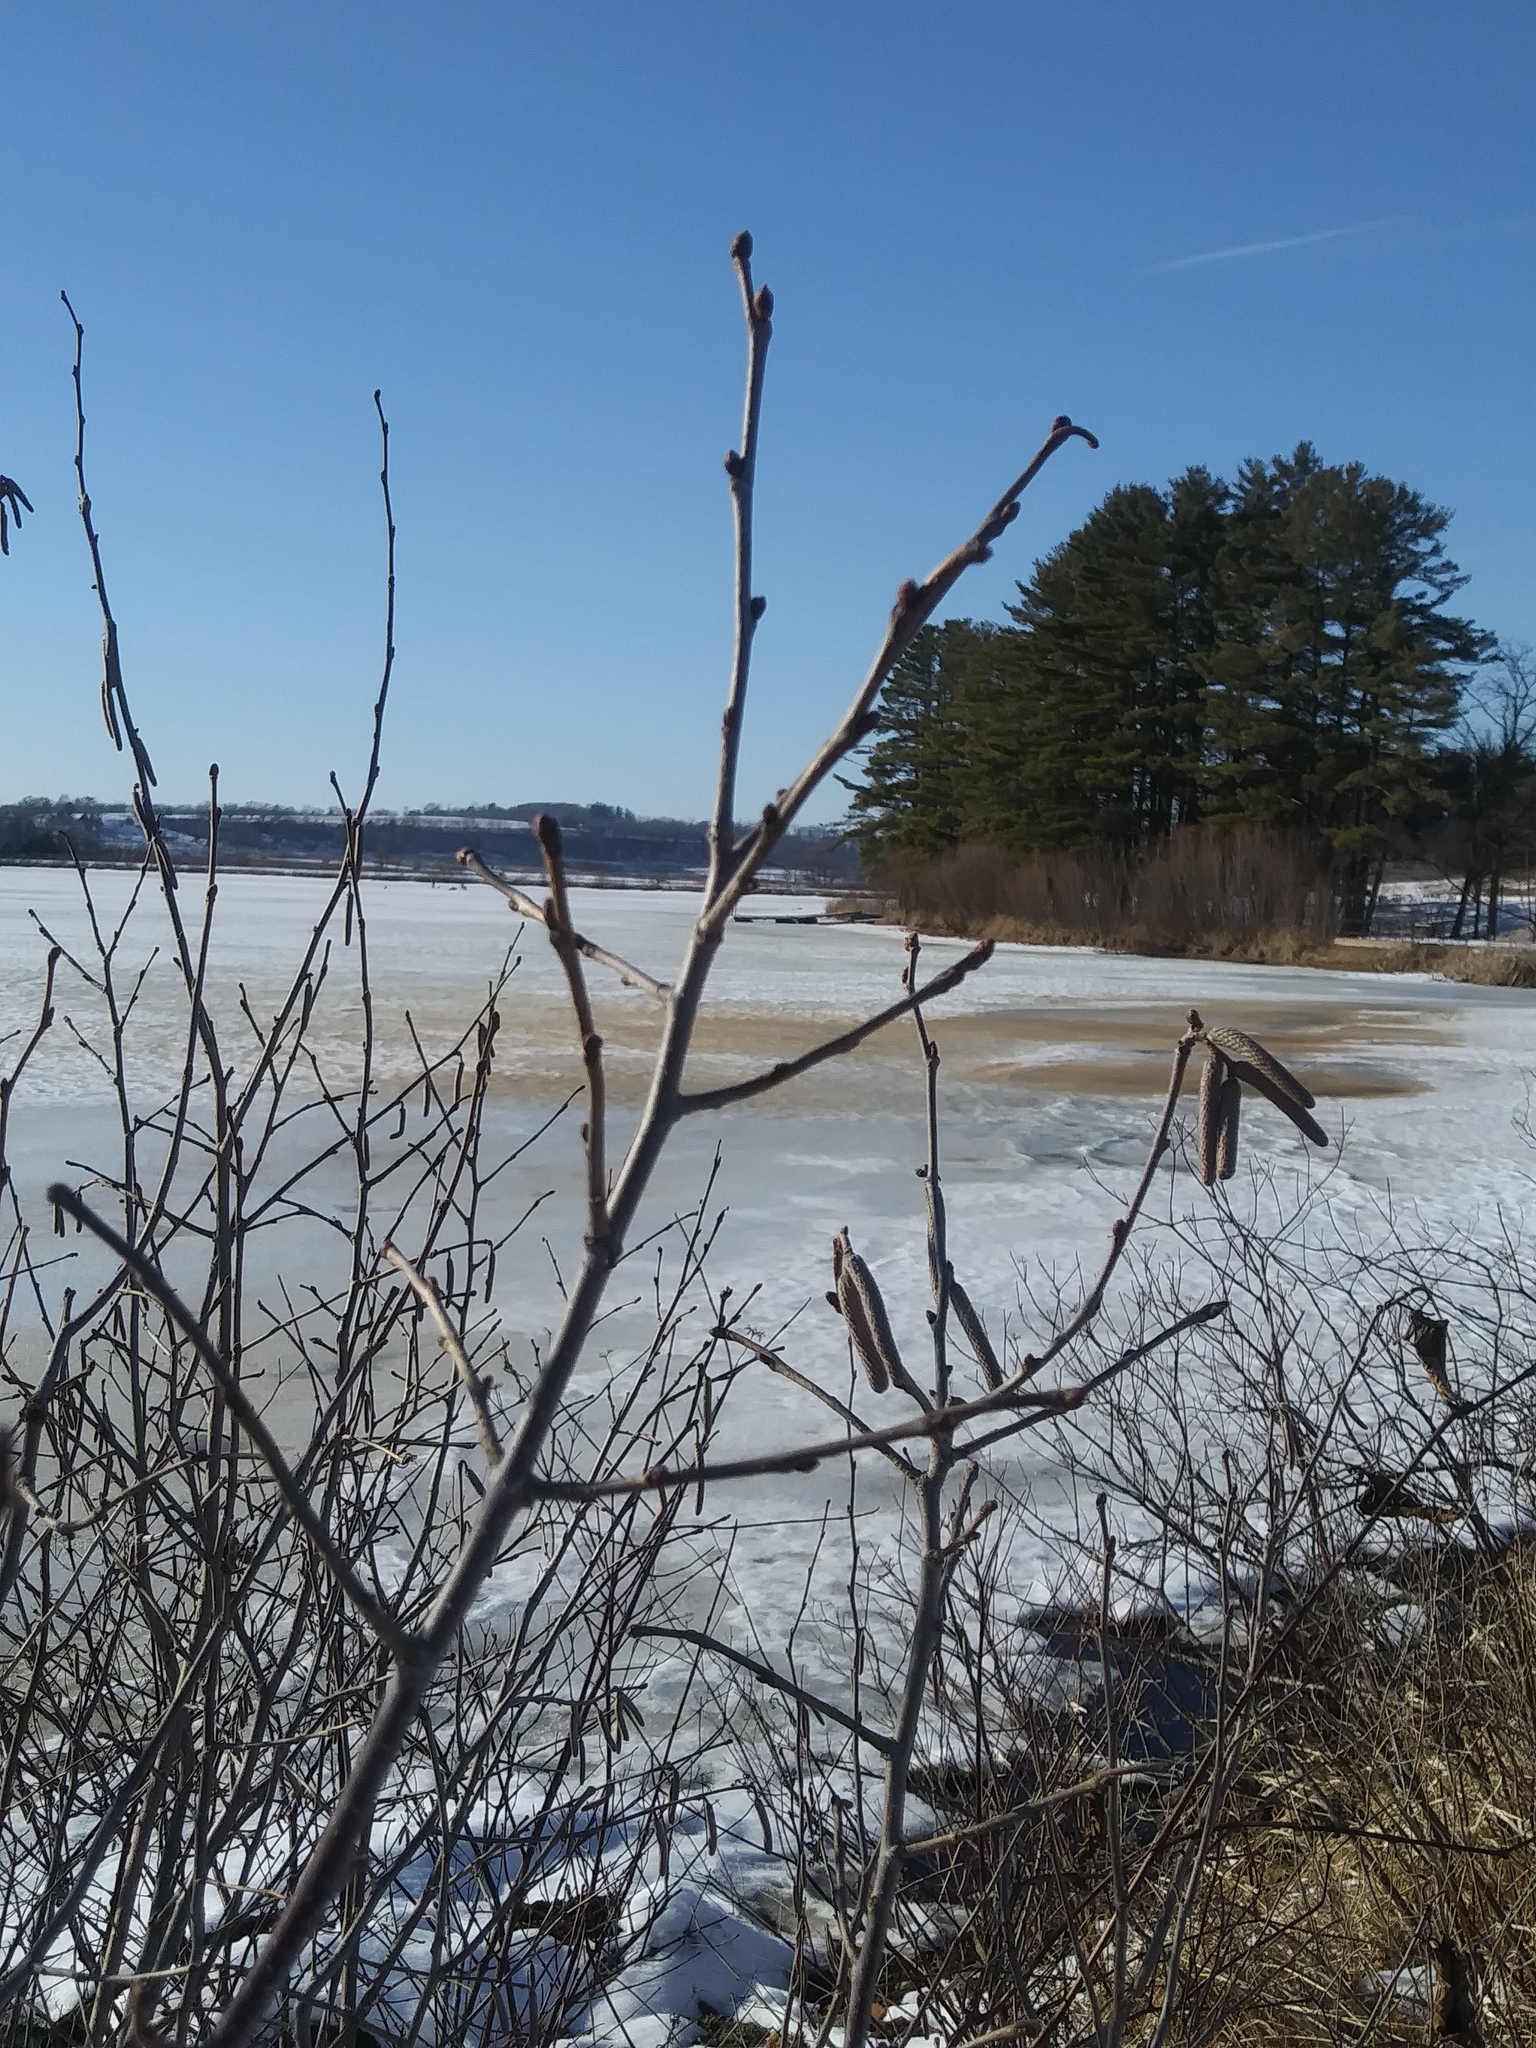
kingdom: Plantae
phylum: Tracheophyta
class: Magnoliopsida
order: Fagales
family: Betulaceae
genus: Corylus
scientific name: Corylus americana
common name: American hazel
